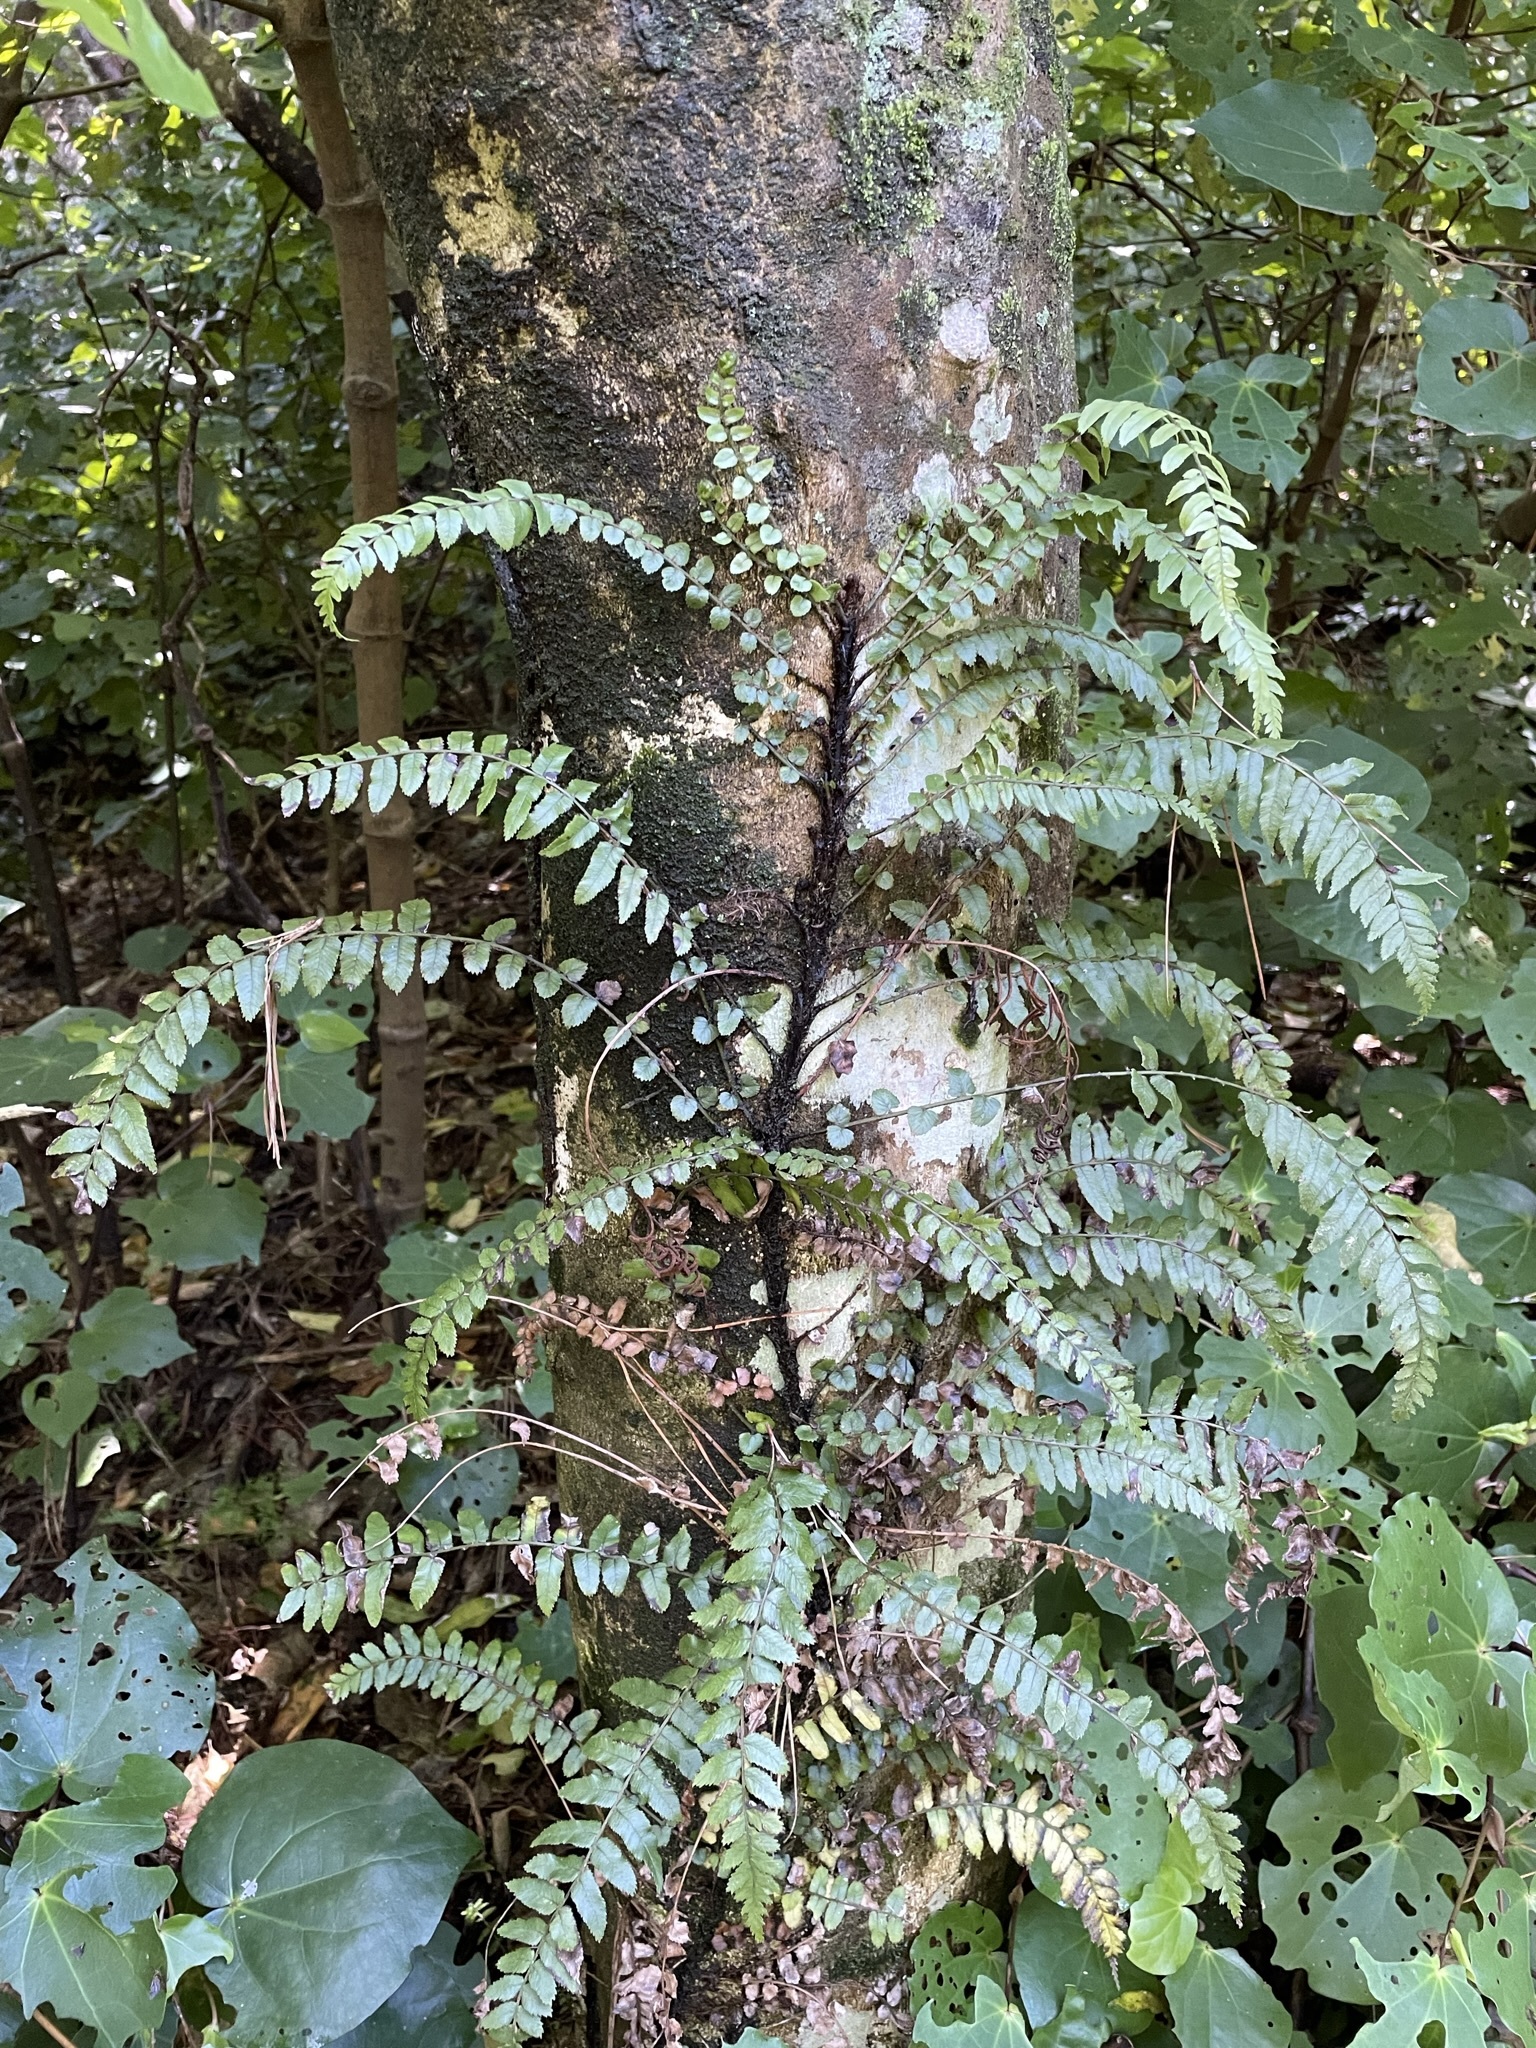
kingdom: Plantae
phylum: Tracheophyta
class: Polypodiopsida
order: Polypodiales
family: Blechnaceae
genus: Icarus
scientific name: Icarus filiformis
